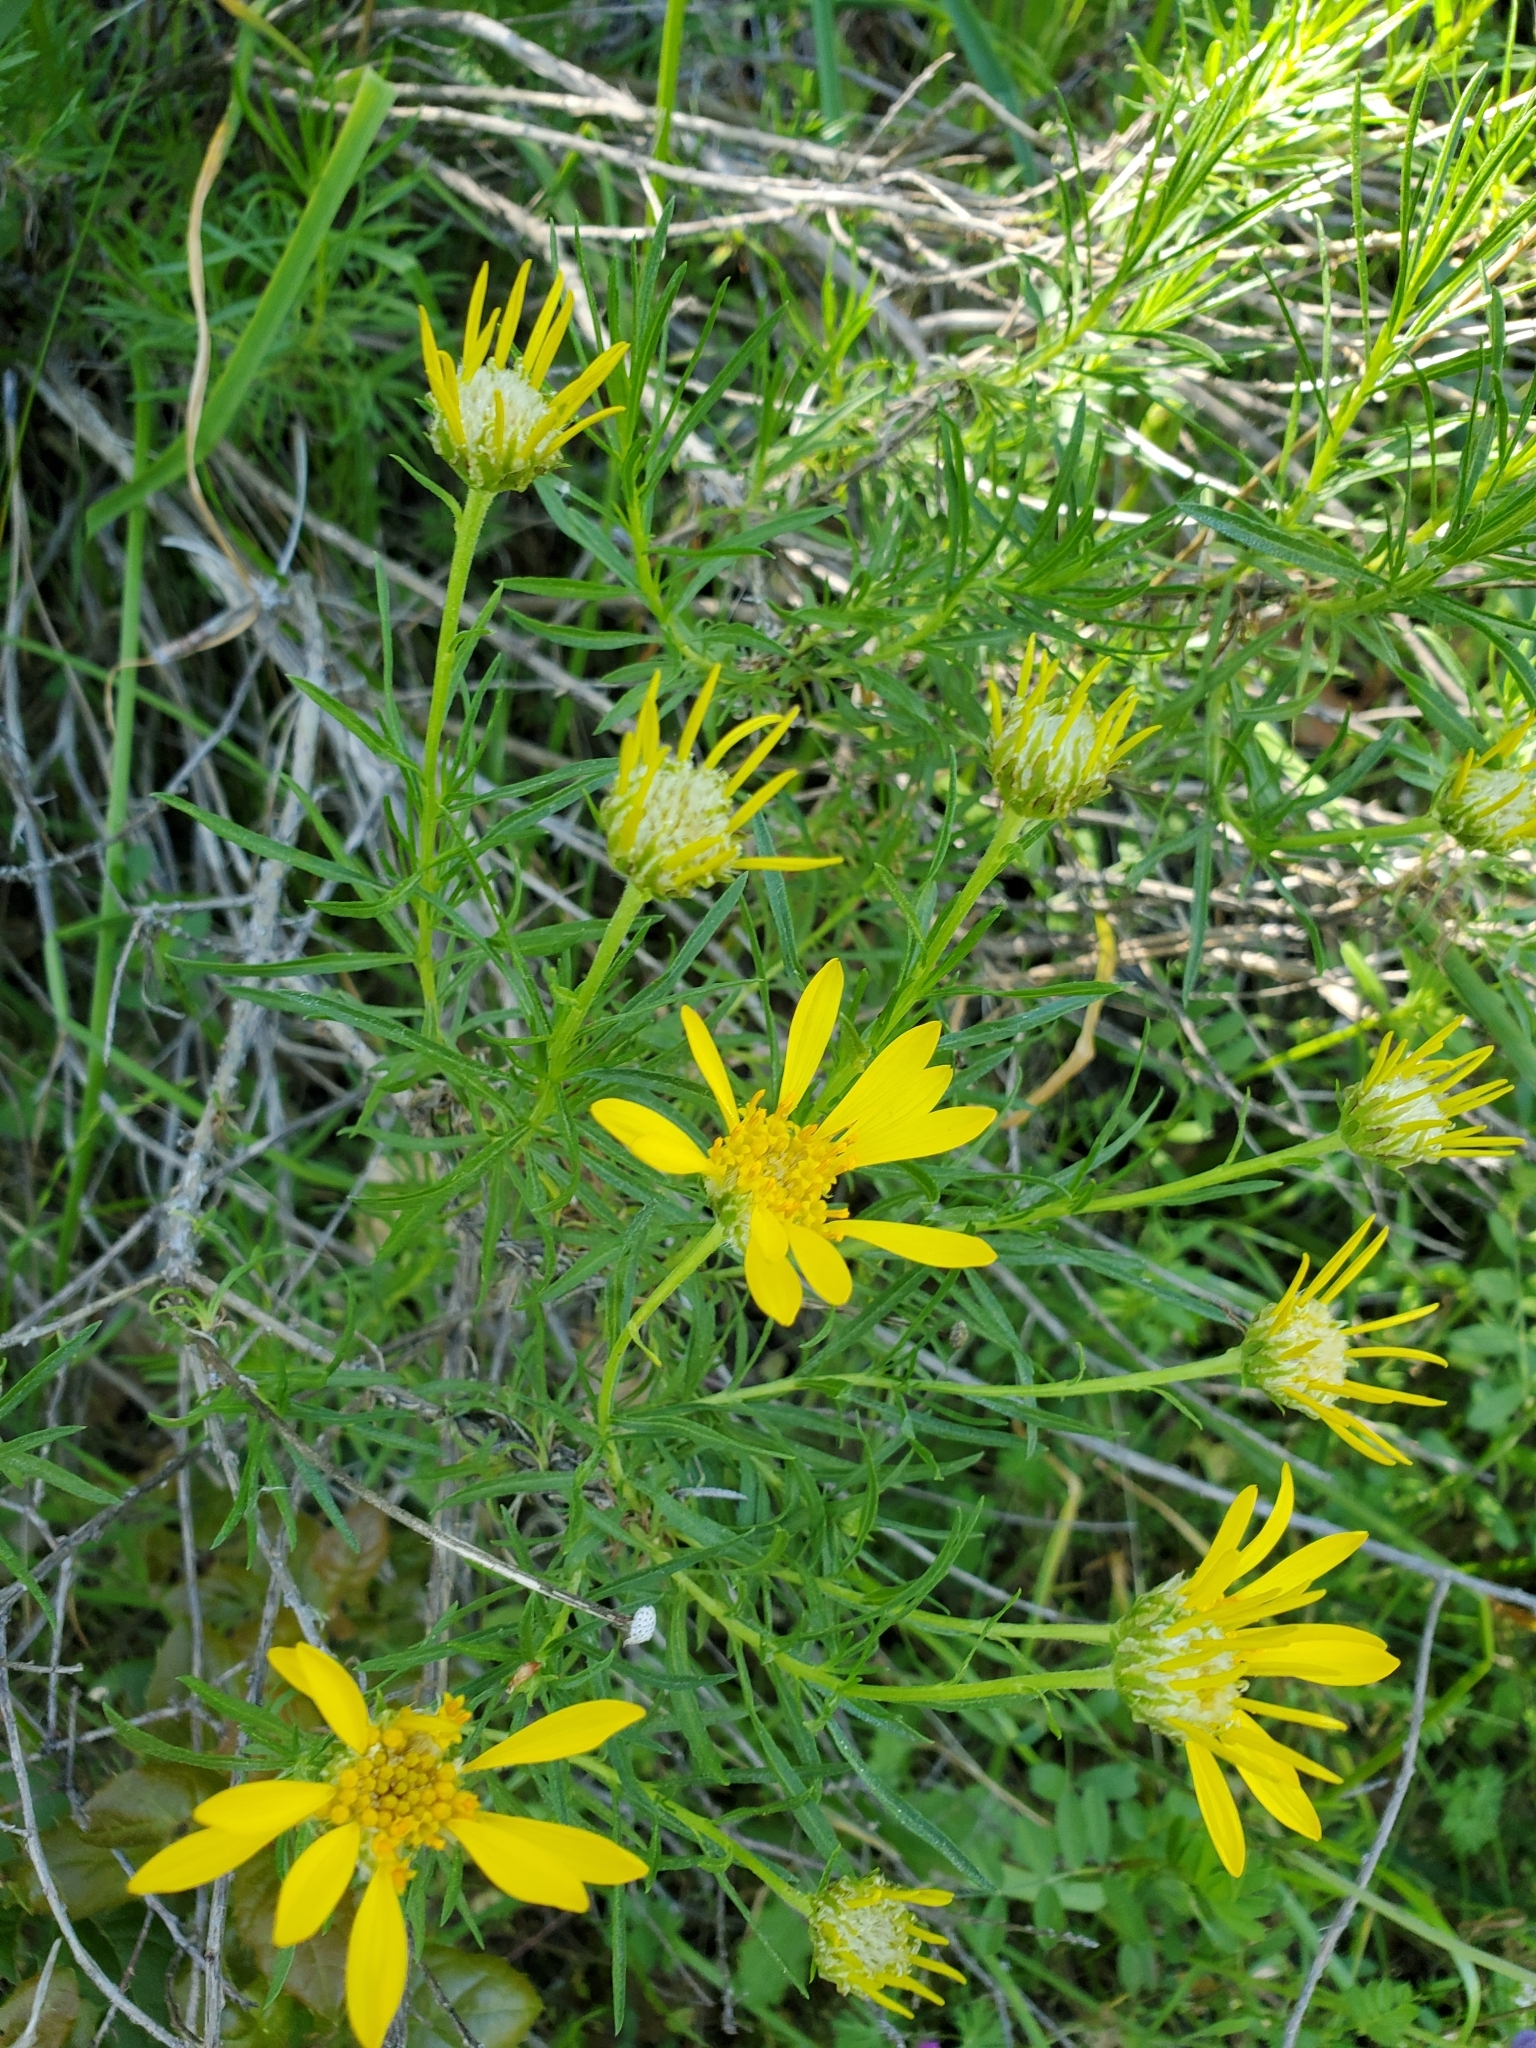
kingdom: Plantae
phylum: Tracheophyta
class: Magnoliopsida
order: Asterales
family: Asteraceae
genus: Ericameria
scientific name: Ericameria linearifolia
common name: Interior goldenbush
